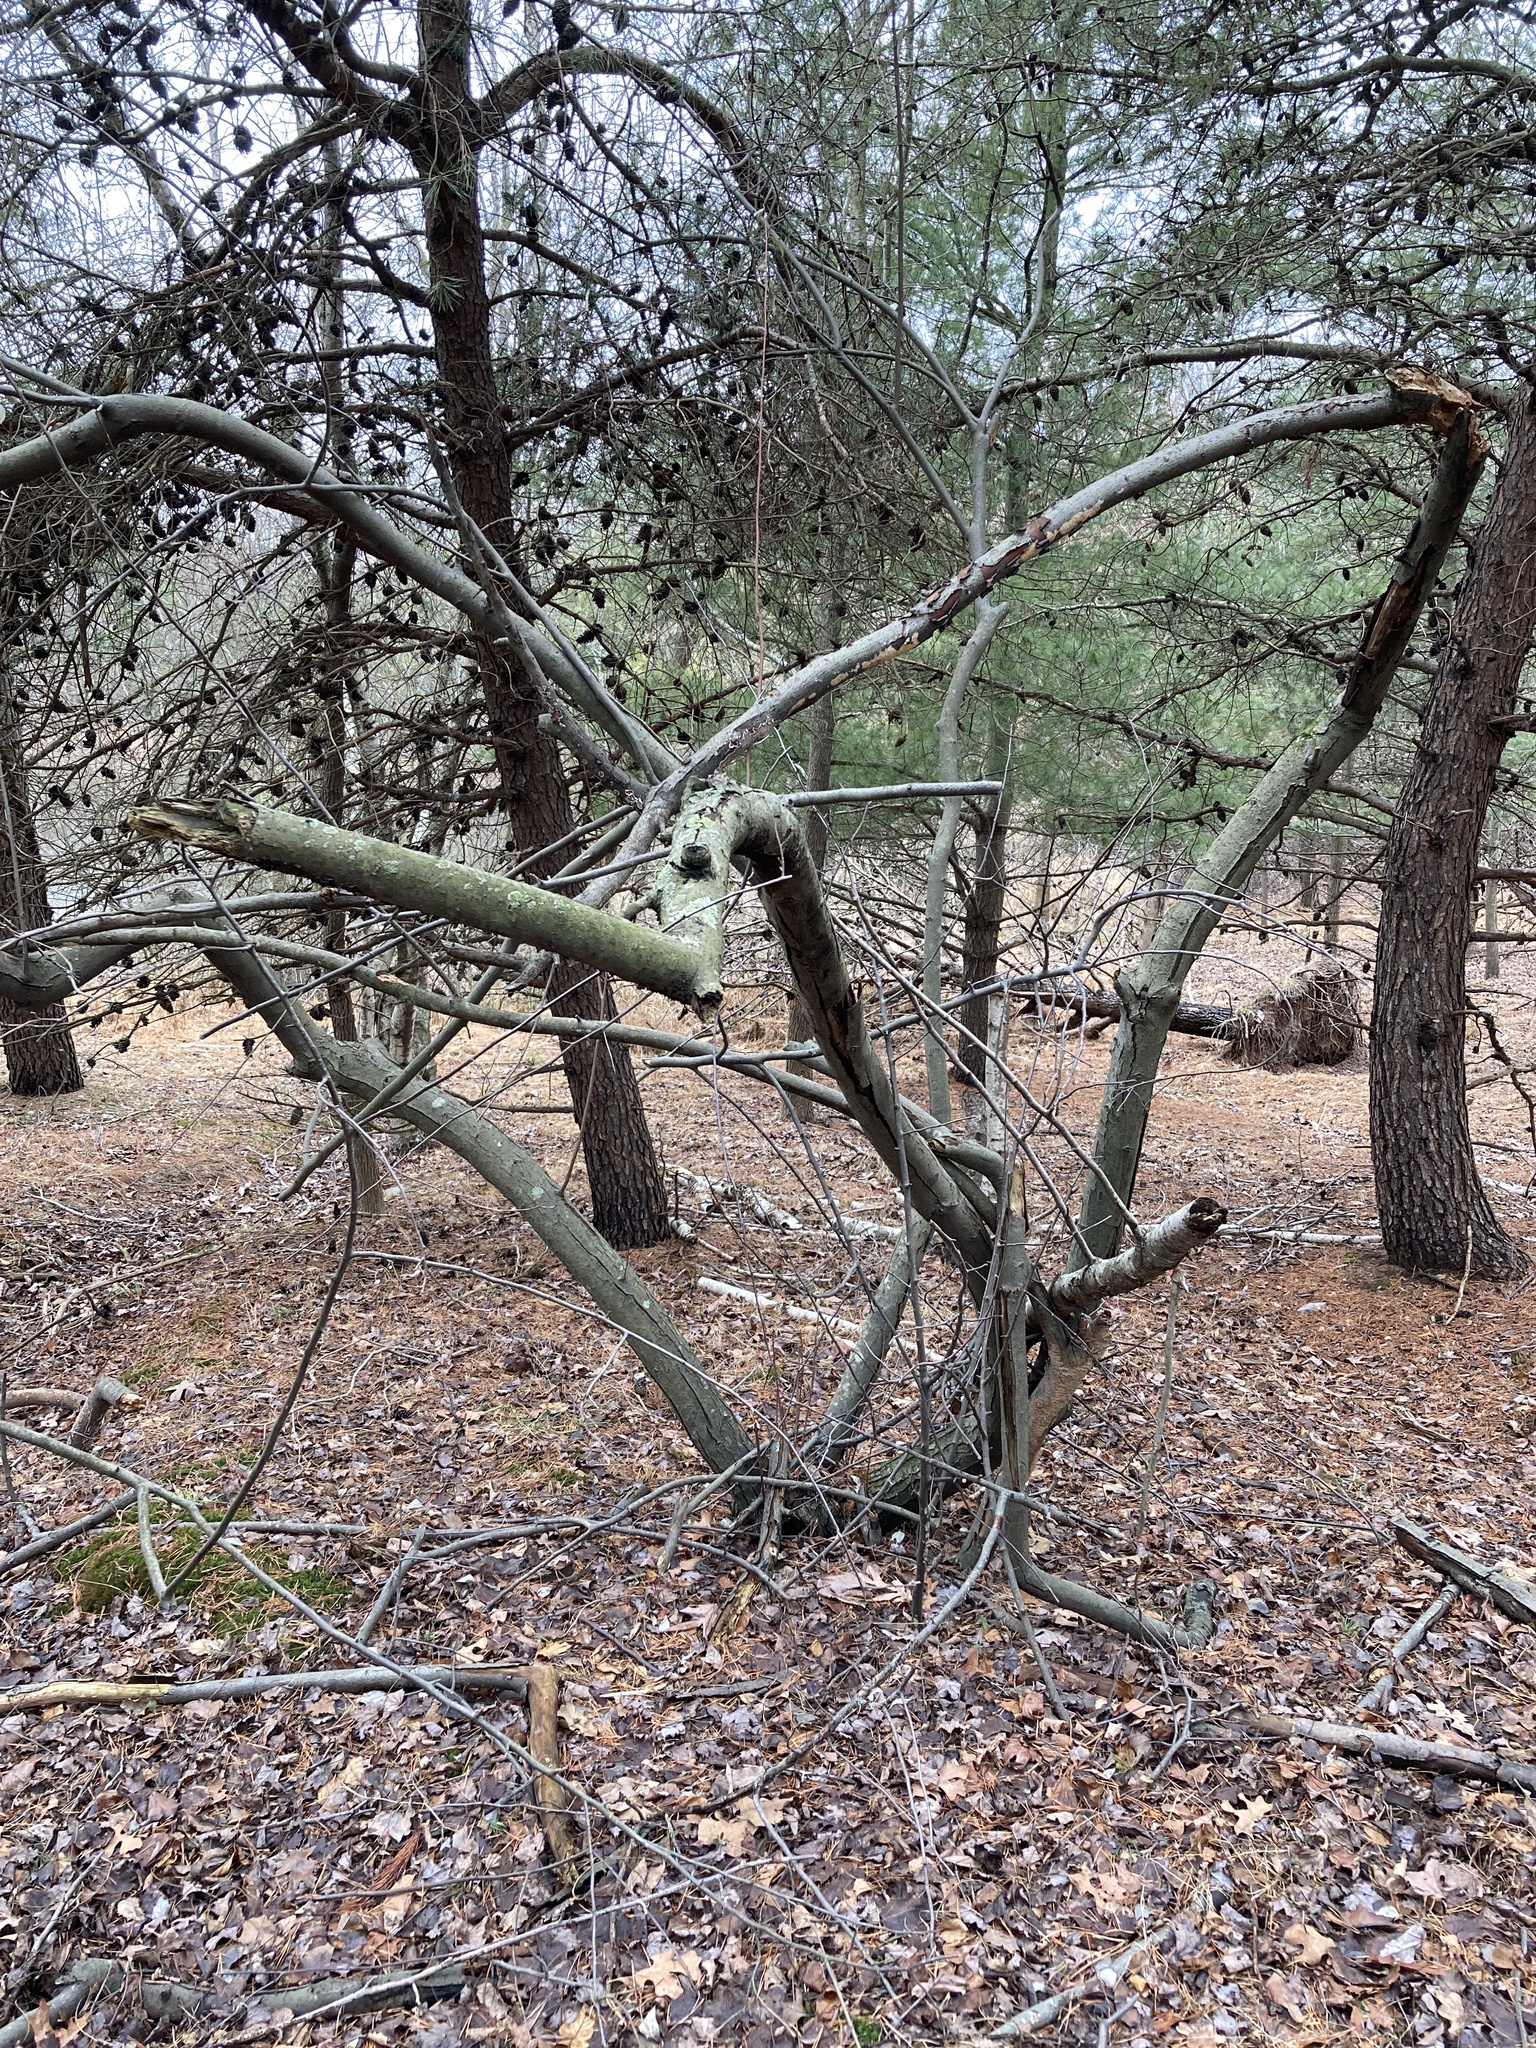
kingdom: Plantae
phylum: Tracheophyta
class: Magnoliopsida
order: Rosales
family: Elaeagnaceae
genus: Elaeagnus
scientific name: Elaeagnus umbellata
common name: Autumn olive
